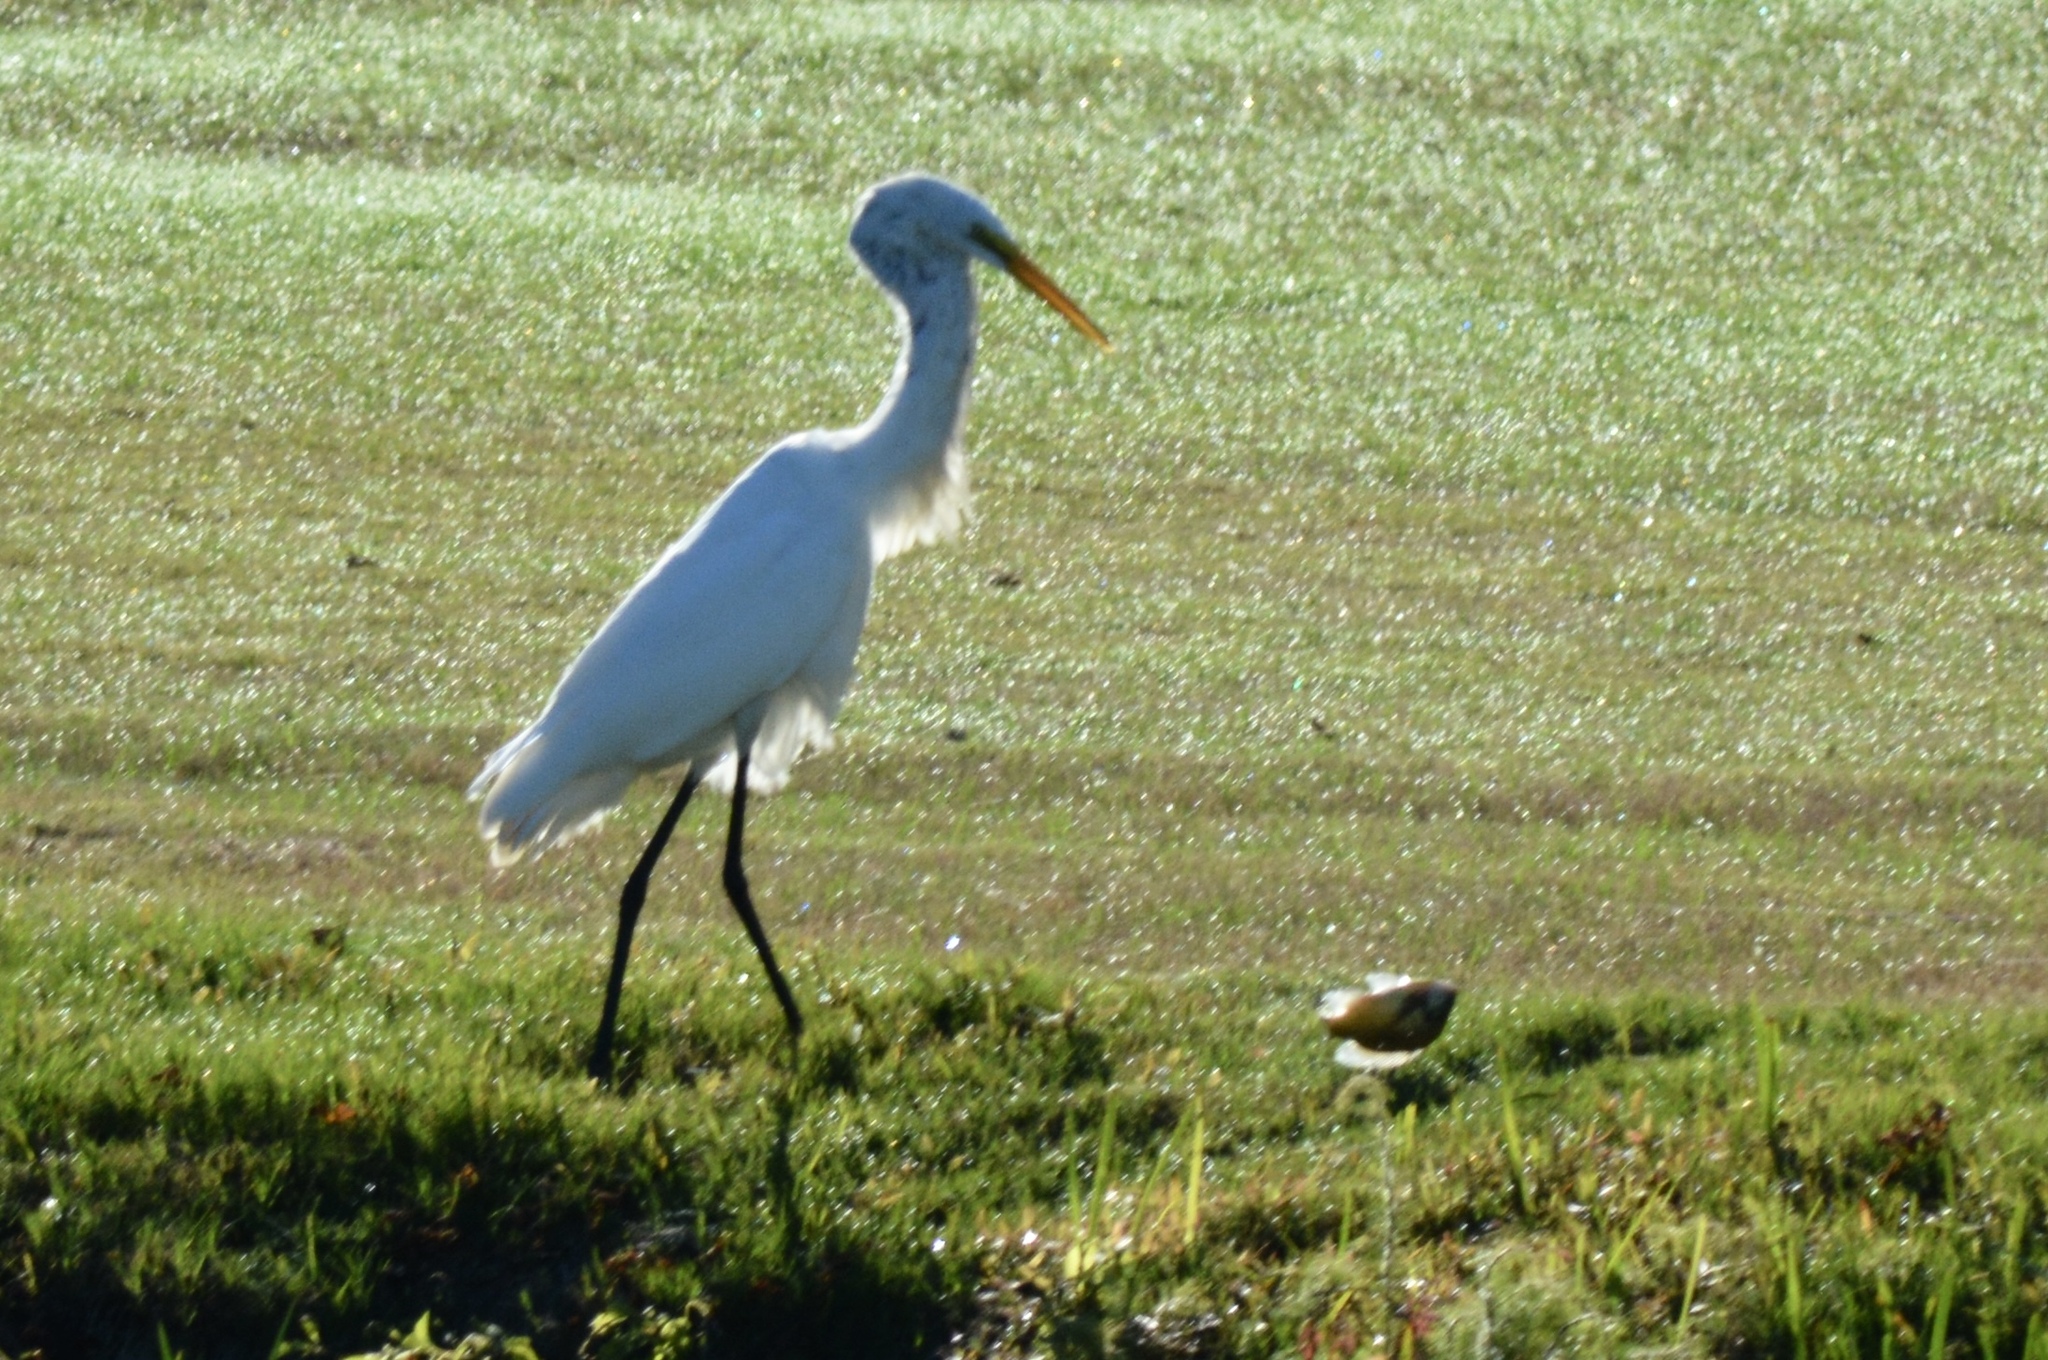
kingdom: Animalia
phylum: Chordata
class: Aves
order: Pelecaniformes
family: Ardeidae
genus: Ardea
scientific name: Ardea alba
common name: Great egret
